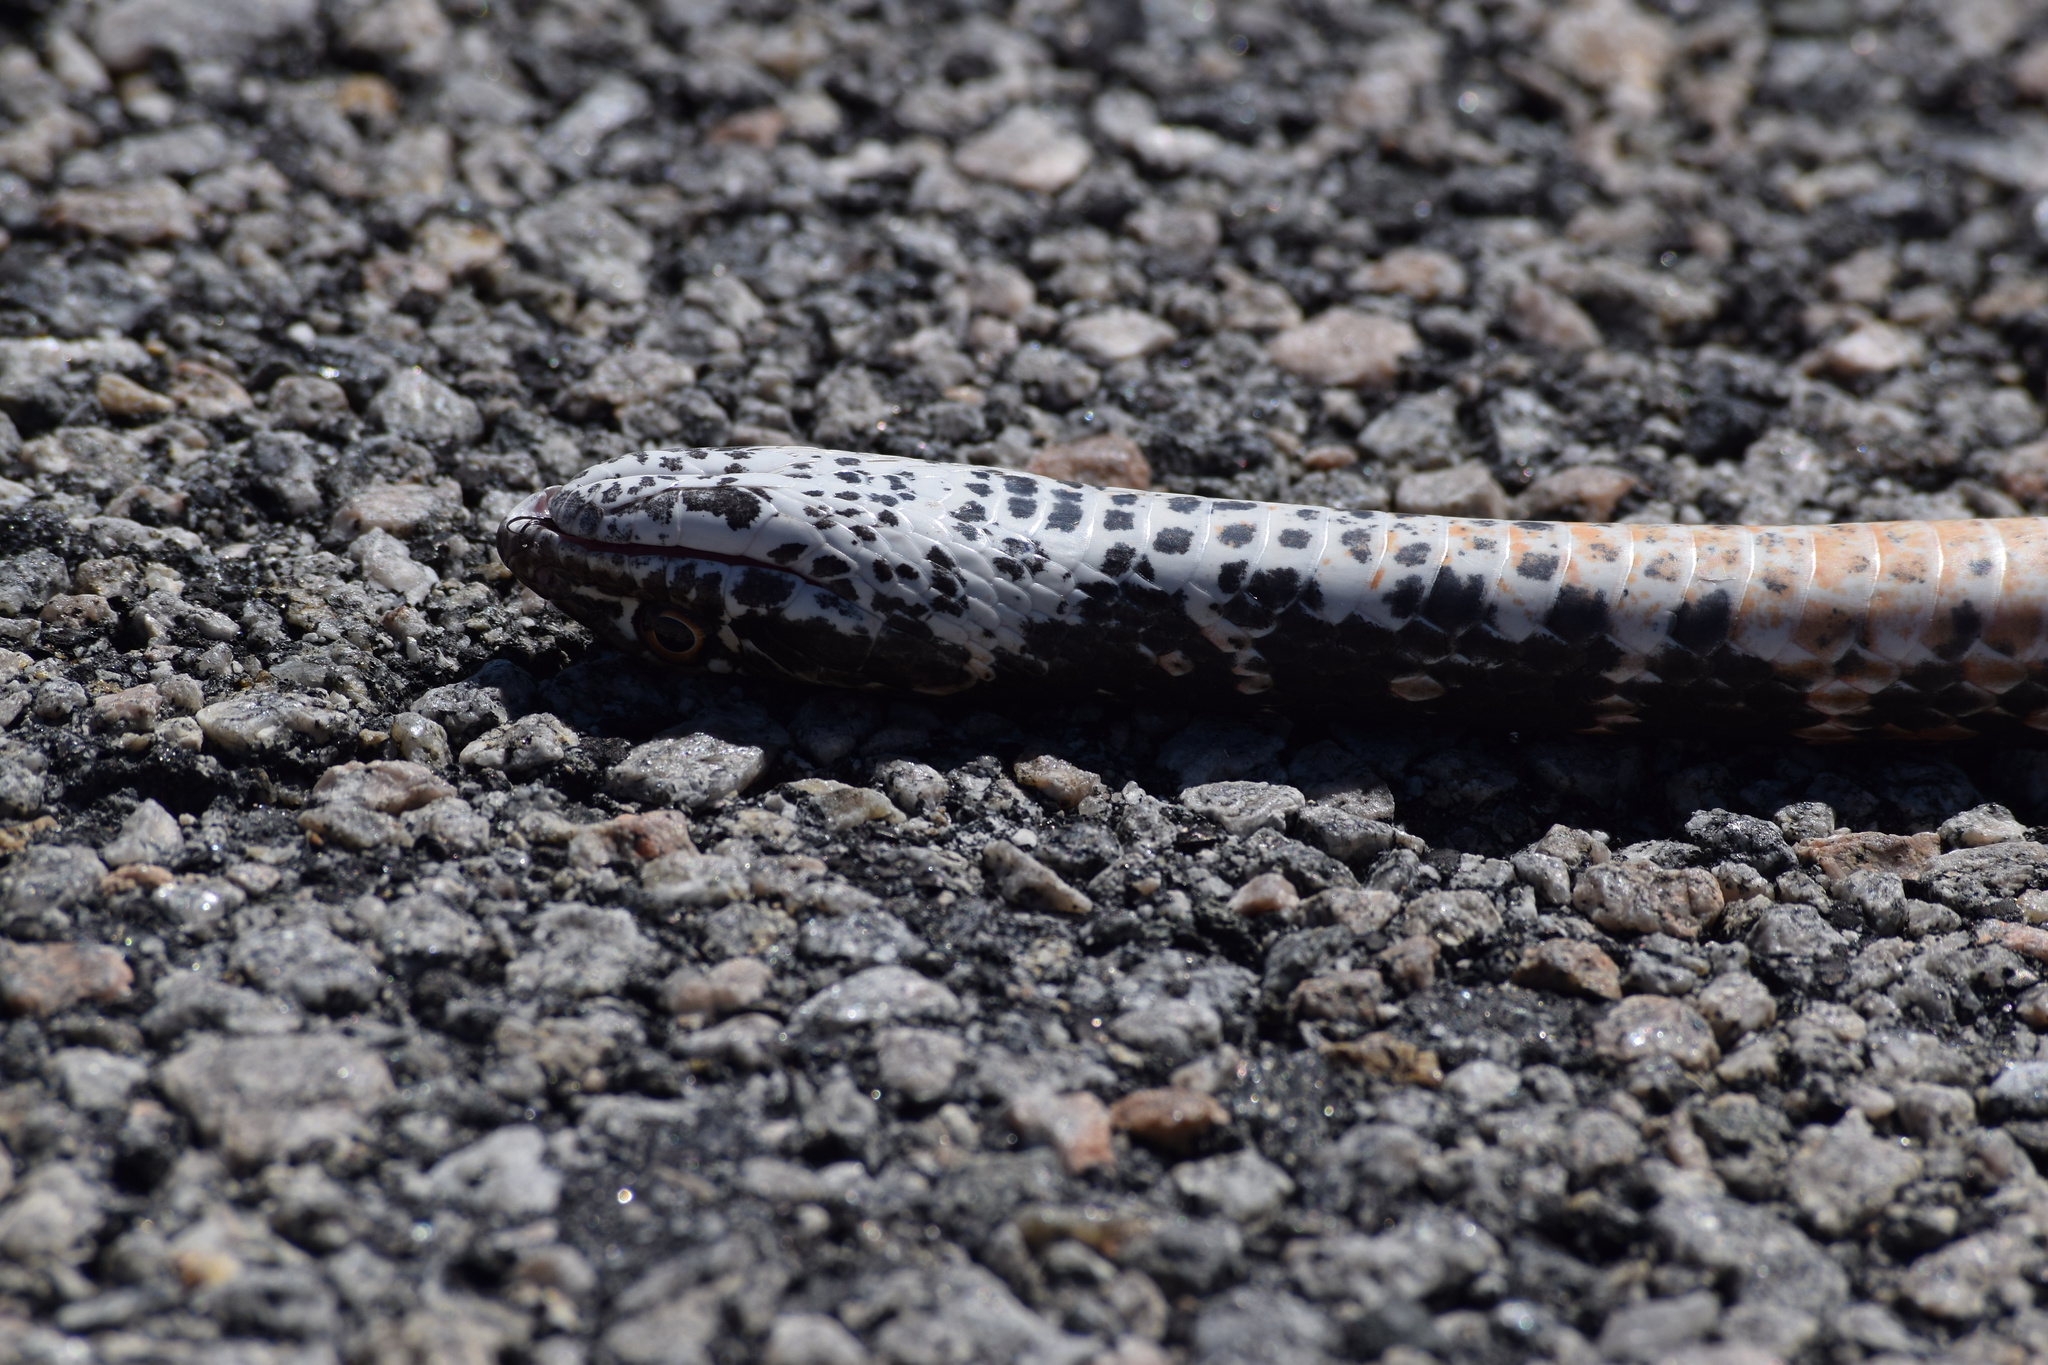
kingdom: Animalia
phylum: Chordata
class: Squamata
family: Colubridae
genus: Masticophis
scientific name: Masticophis flagellum
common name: Coachwhip
